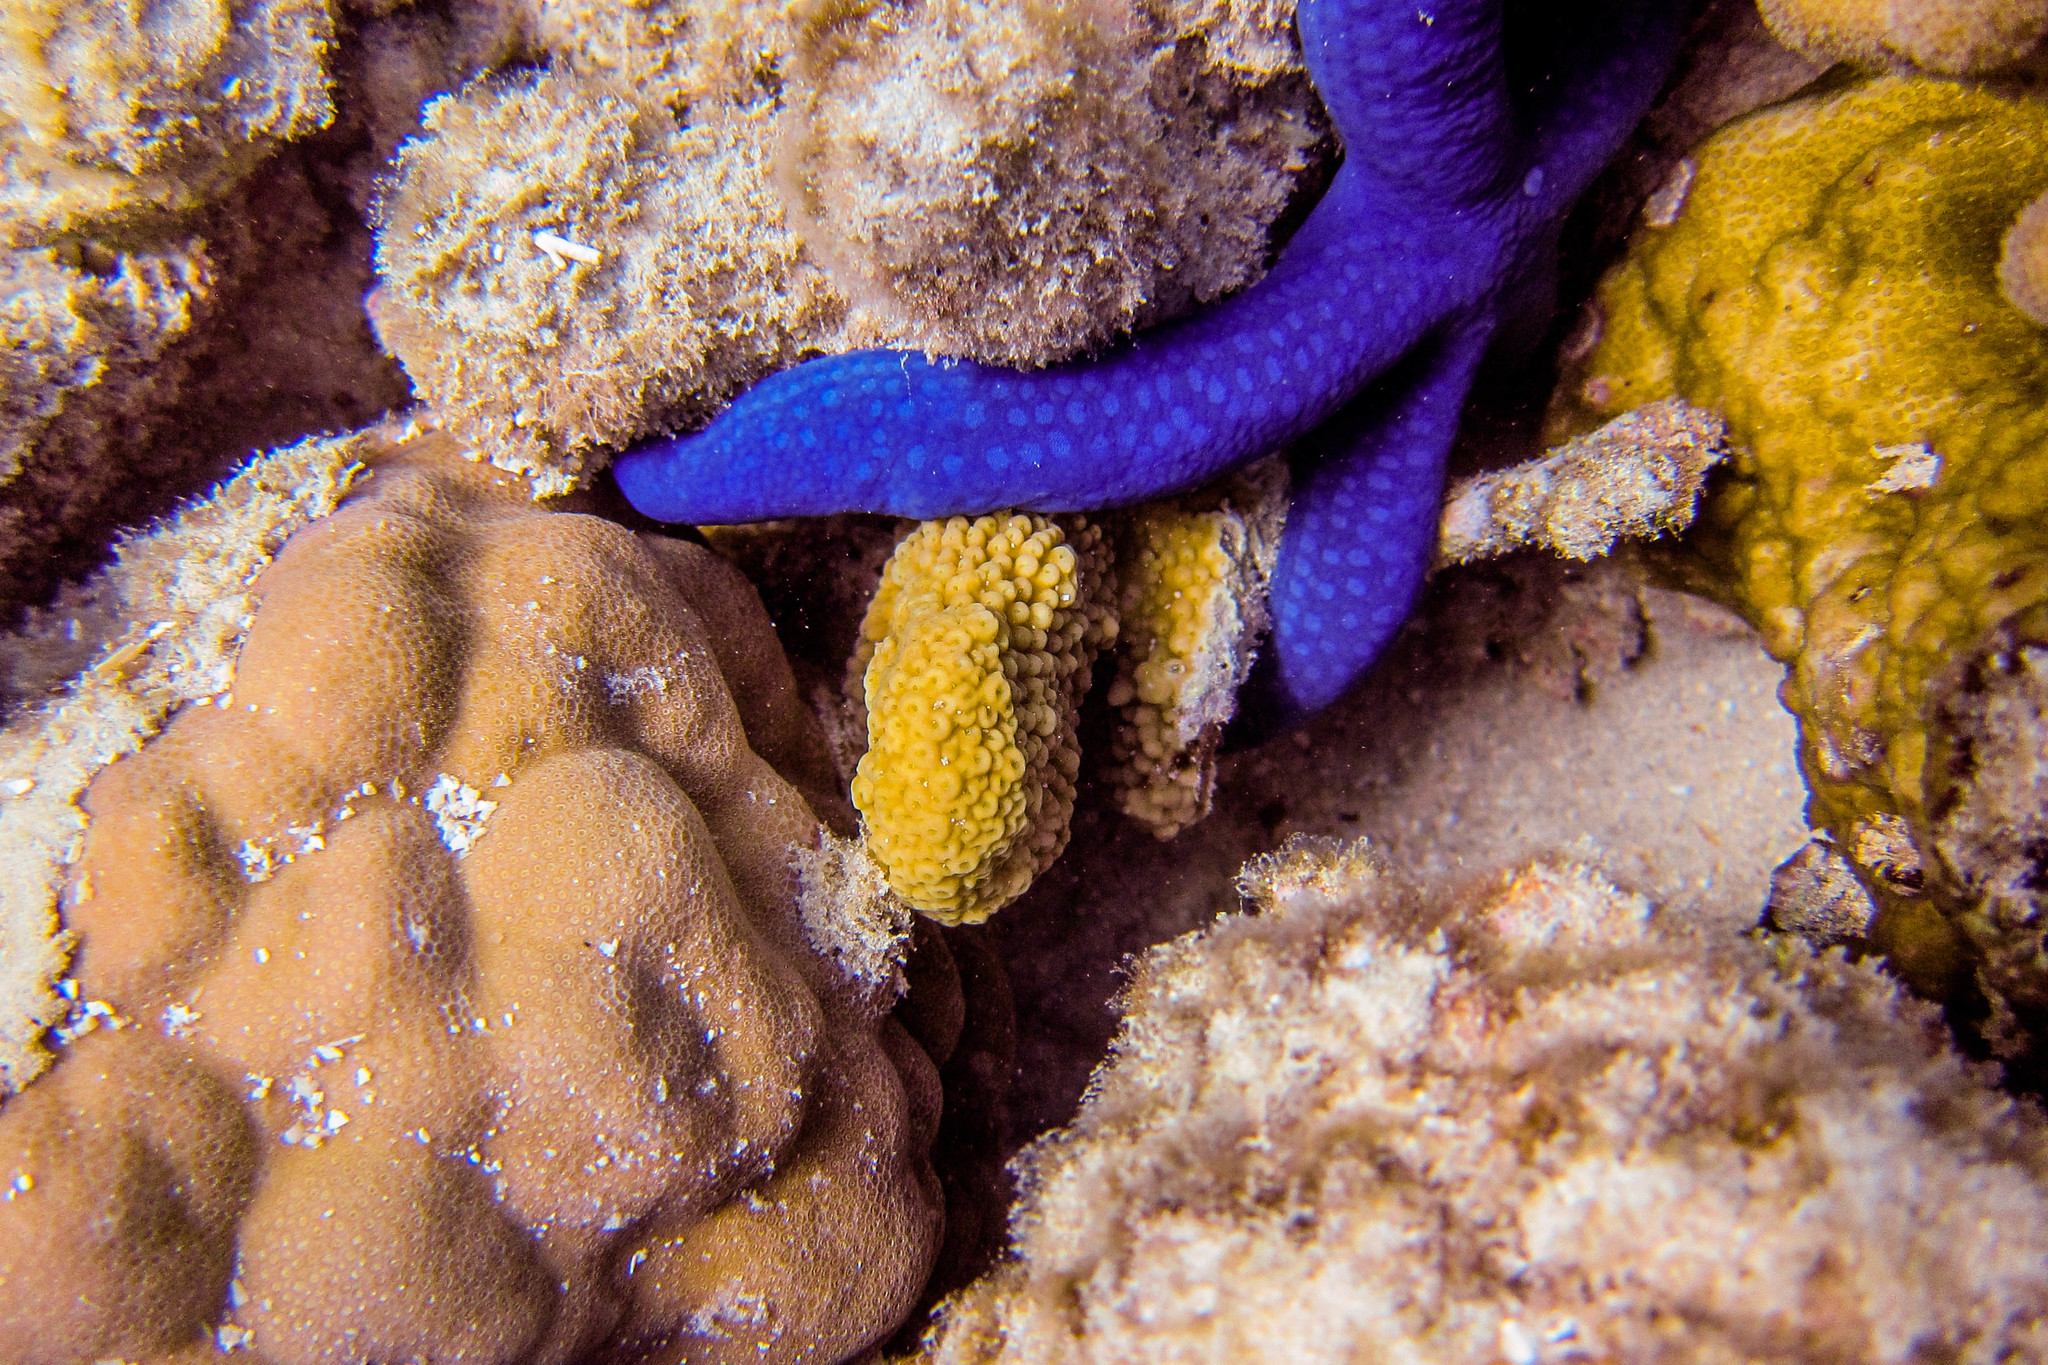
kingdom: Animalia
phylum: Echinodermata
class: Asteroidea
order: Valvatida
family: Ophidiasteridae
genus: Linckia
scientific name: Linckia laevigata
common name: Azure sea star
